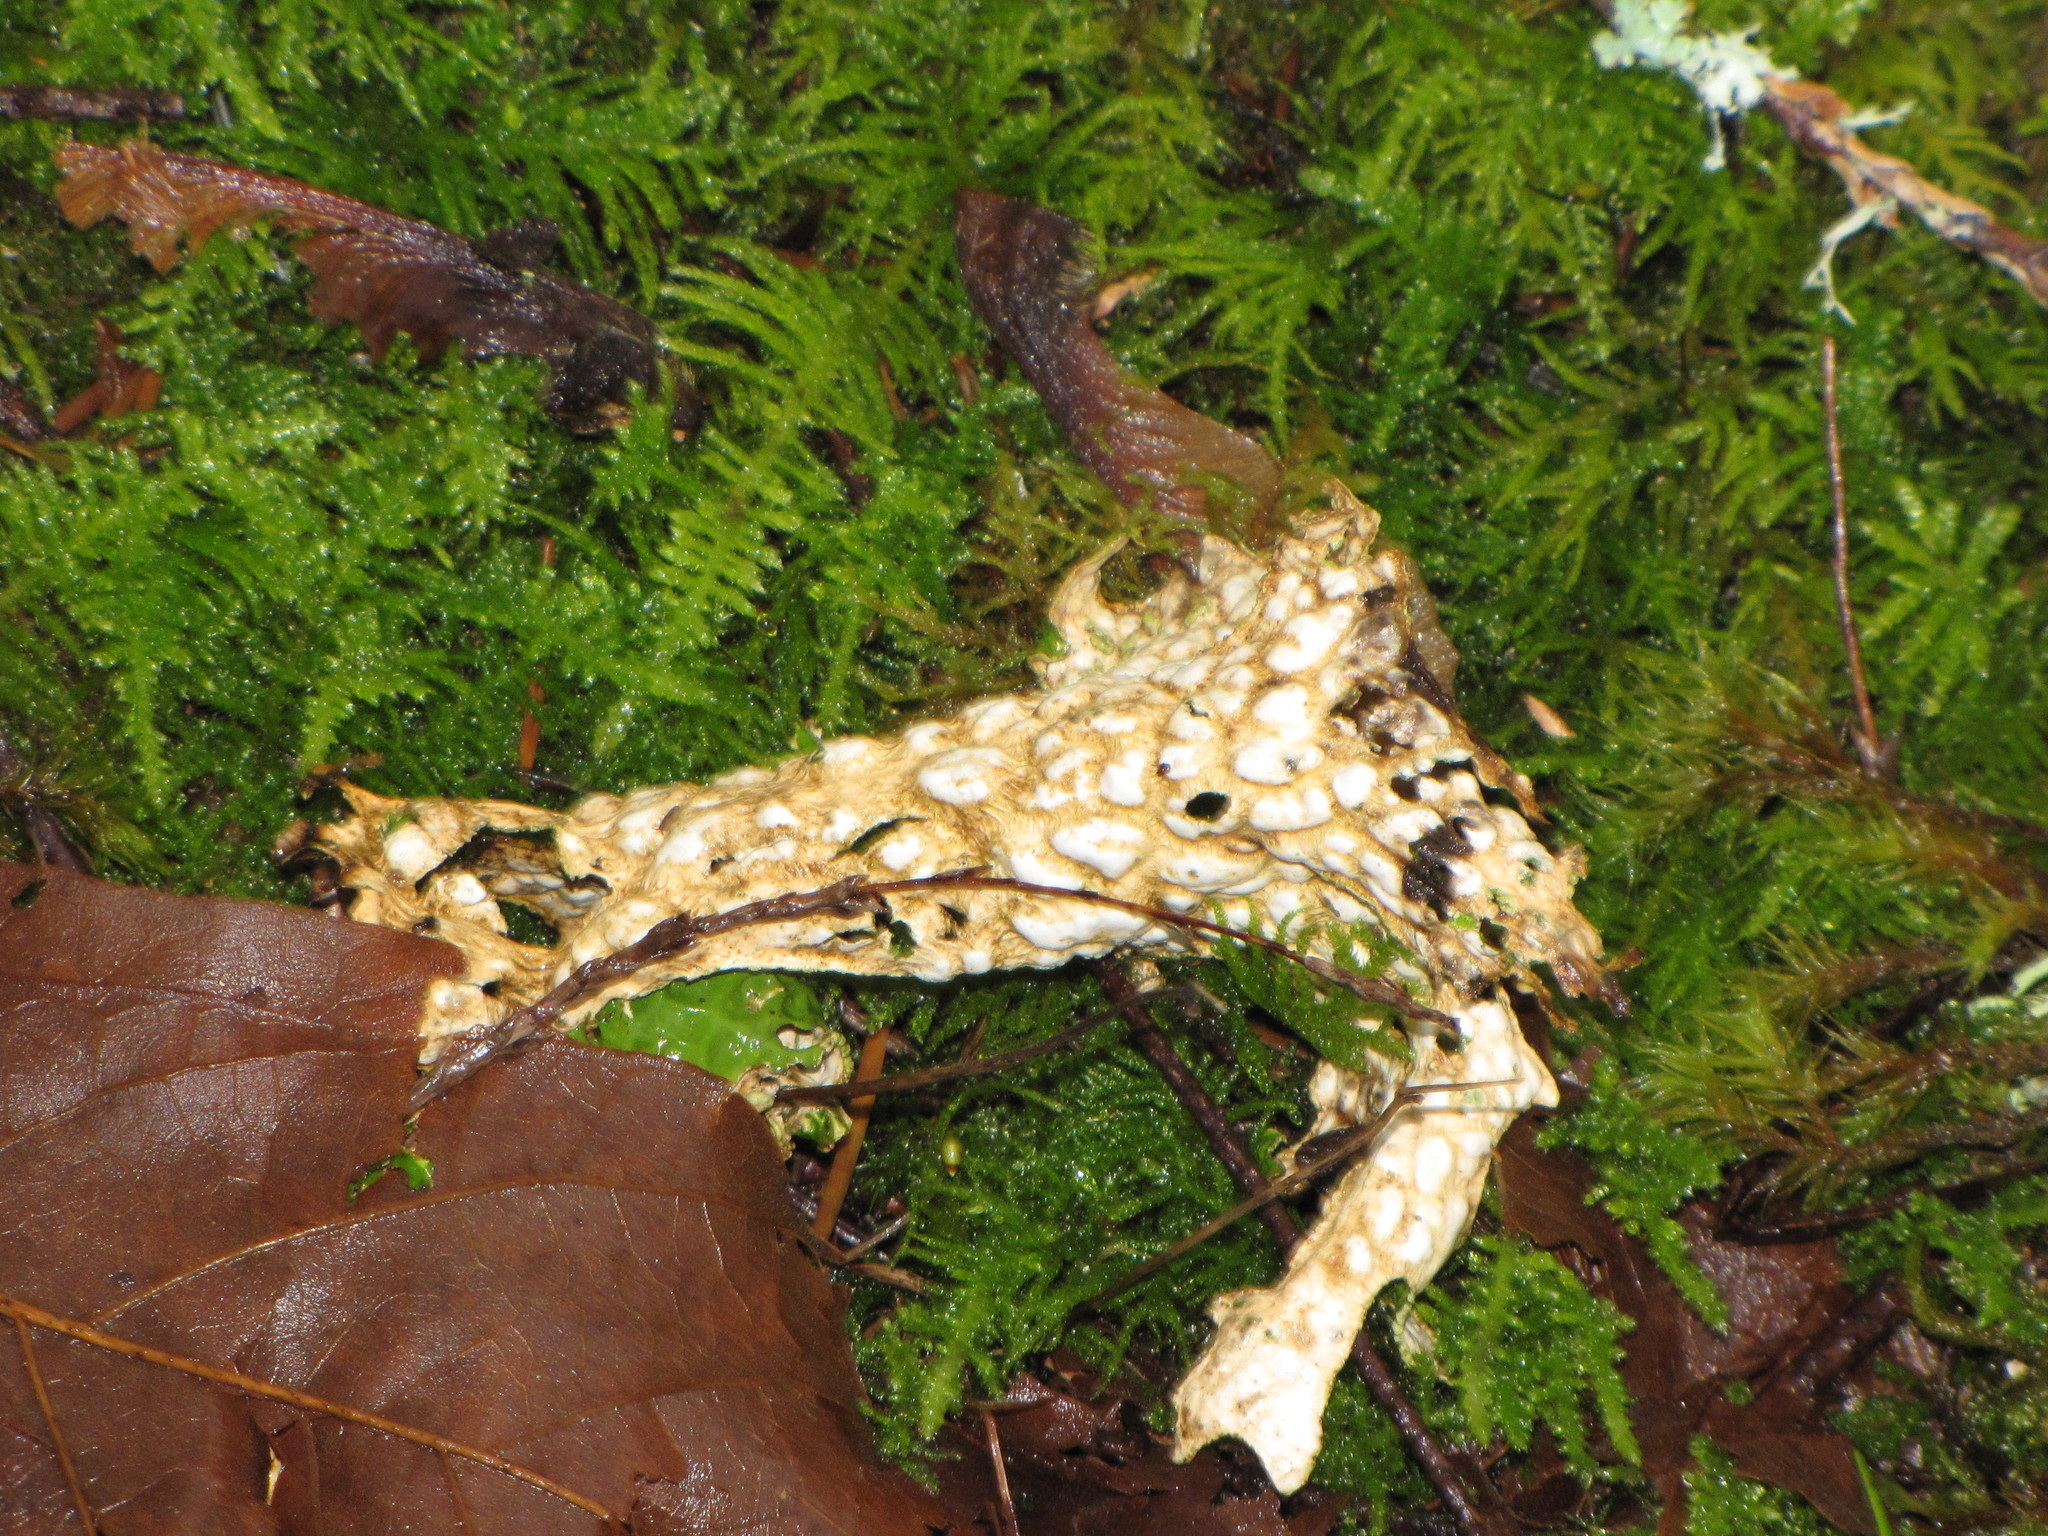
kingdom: Fungi
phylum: Ascomycota
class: Lecanoromycetes
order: Peltigerales
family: Lobariaceae
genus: Lobaria
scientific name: Lobaria pulmonaria
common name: Lungwort
